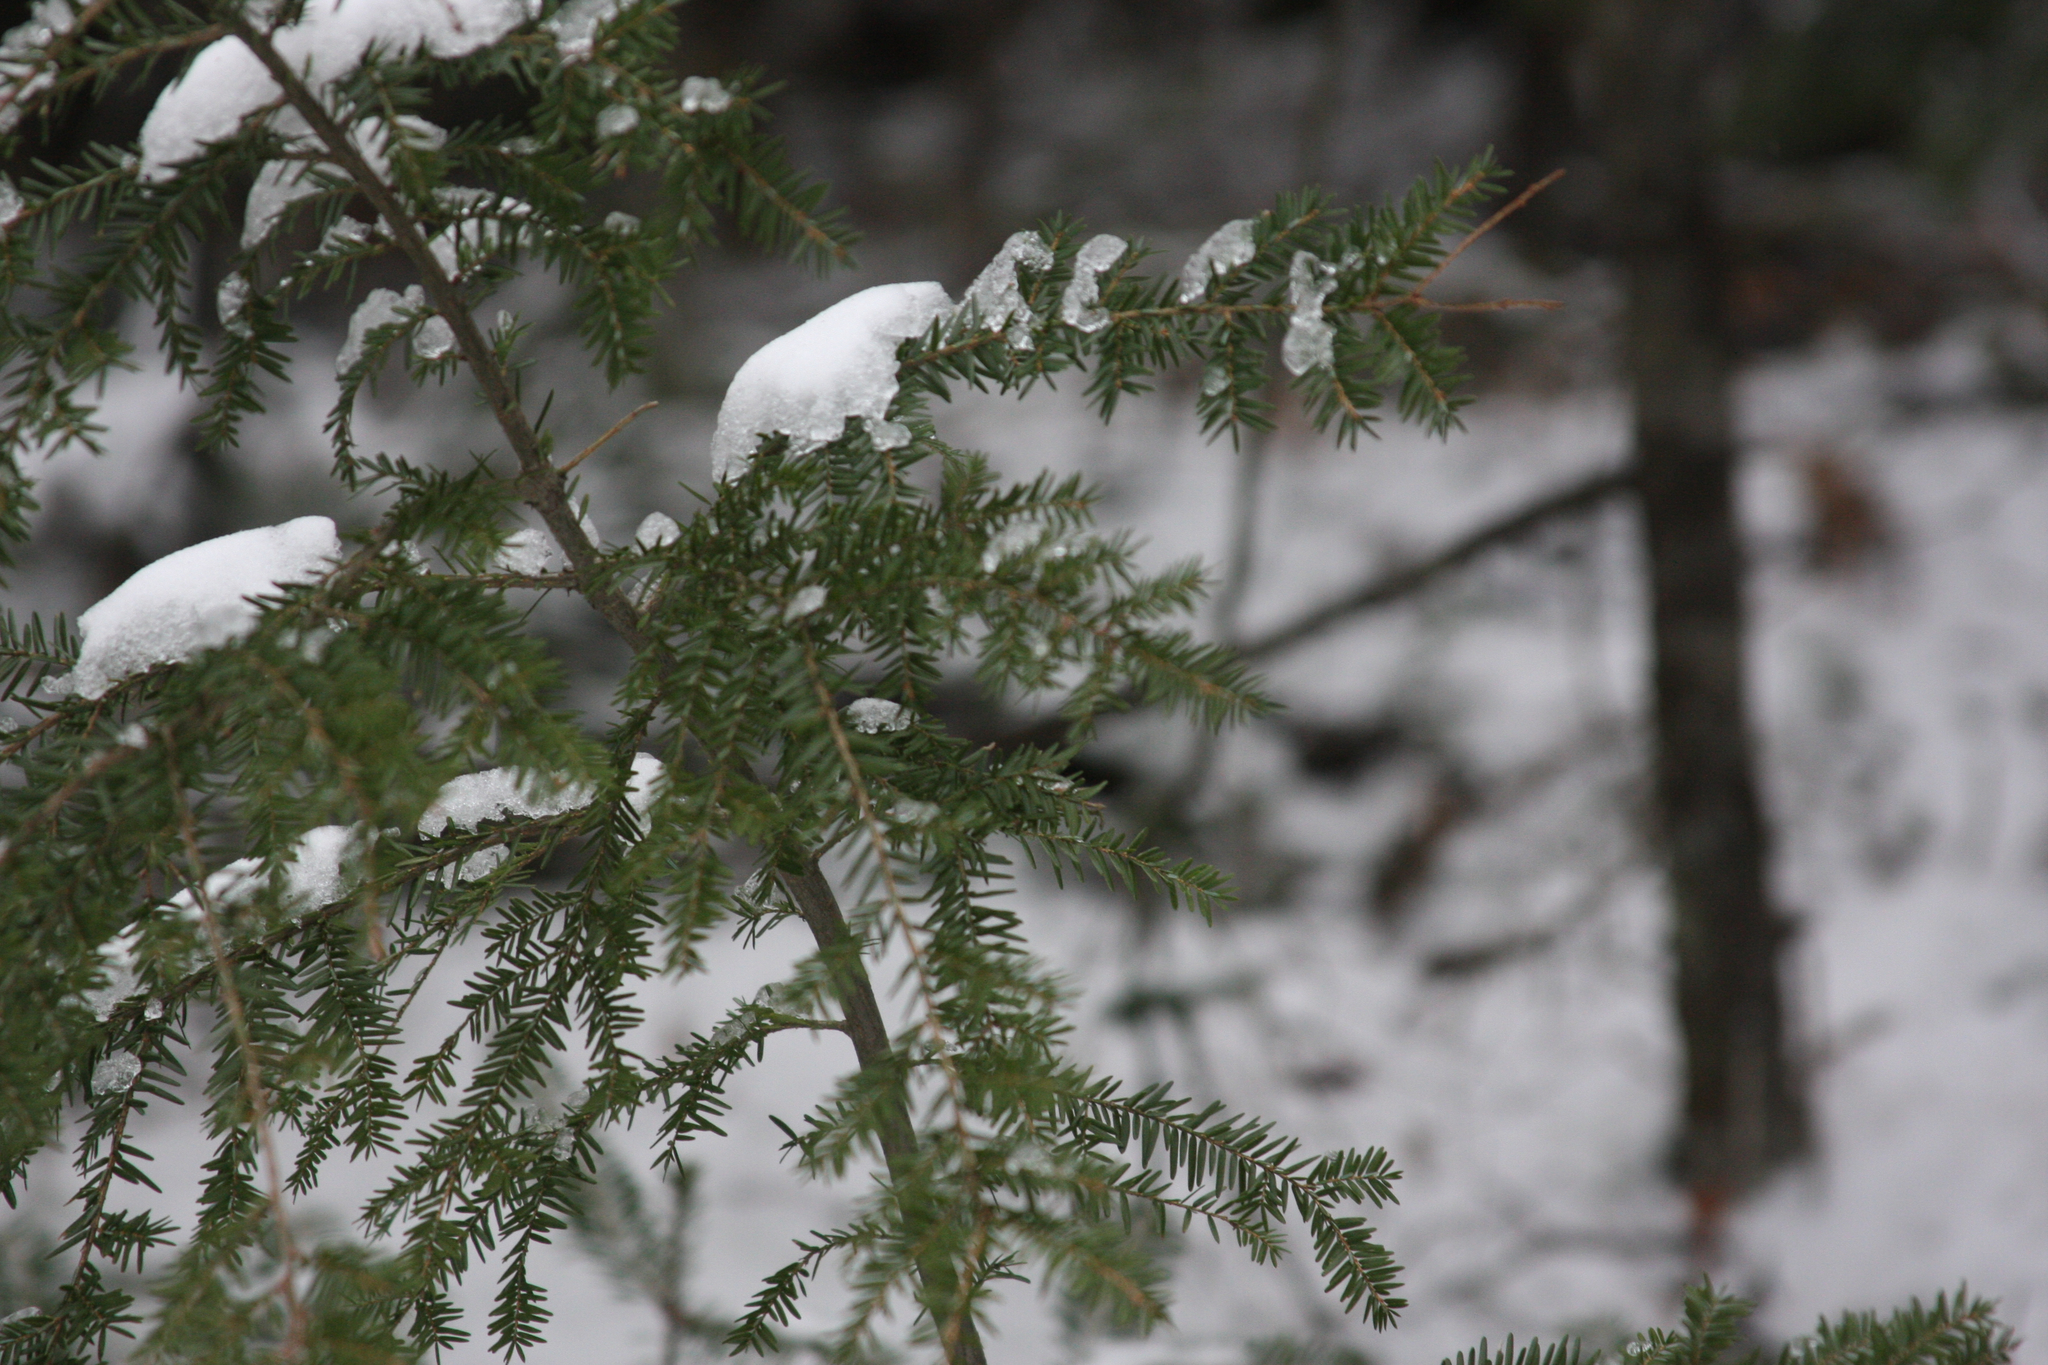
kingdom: Plantae
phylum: Tracheophyta
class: Pinopsida
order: Pinales
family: Pinaceae
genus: Tsuga
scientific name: Tsuga canadensis
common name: Eastern hemlock
